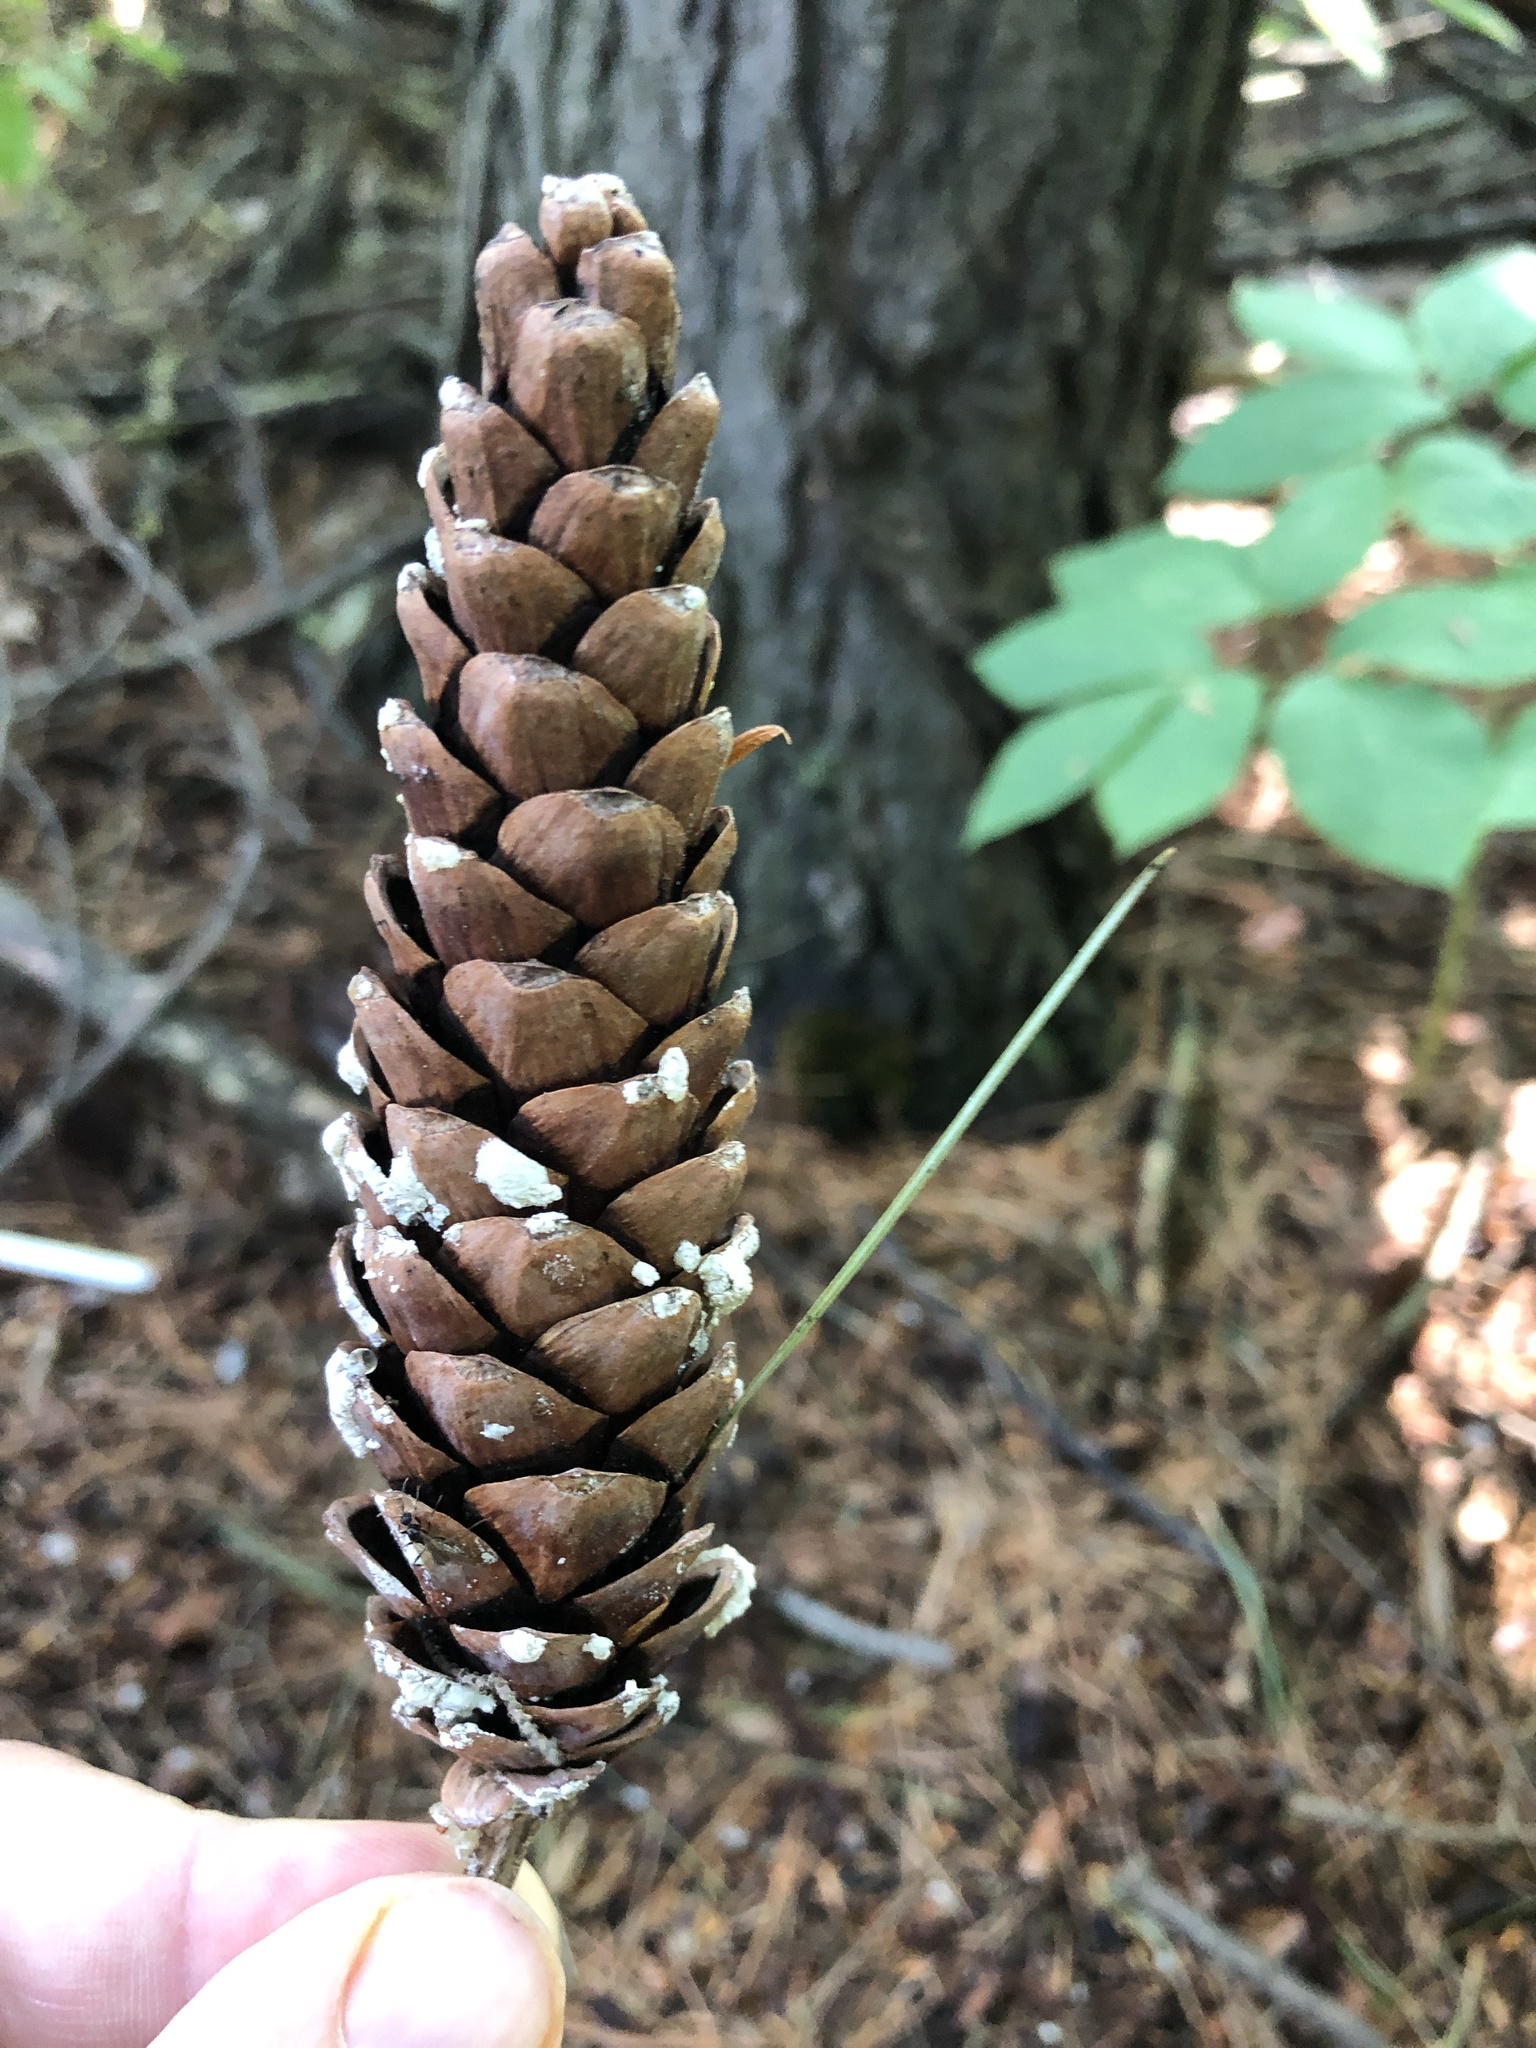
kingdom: Plantae
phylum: Tracheophyta
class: Pinopsida
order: Pinales
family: Pinaceae
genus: Pinus
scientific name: Pinus strobus
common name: Weymouth pine
